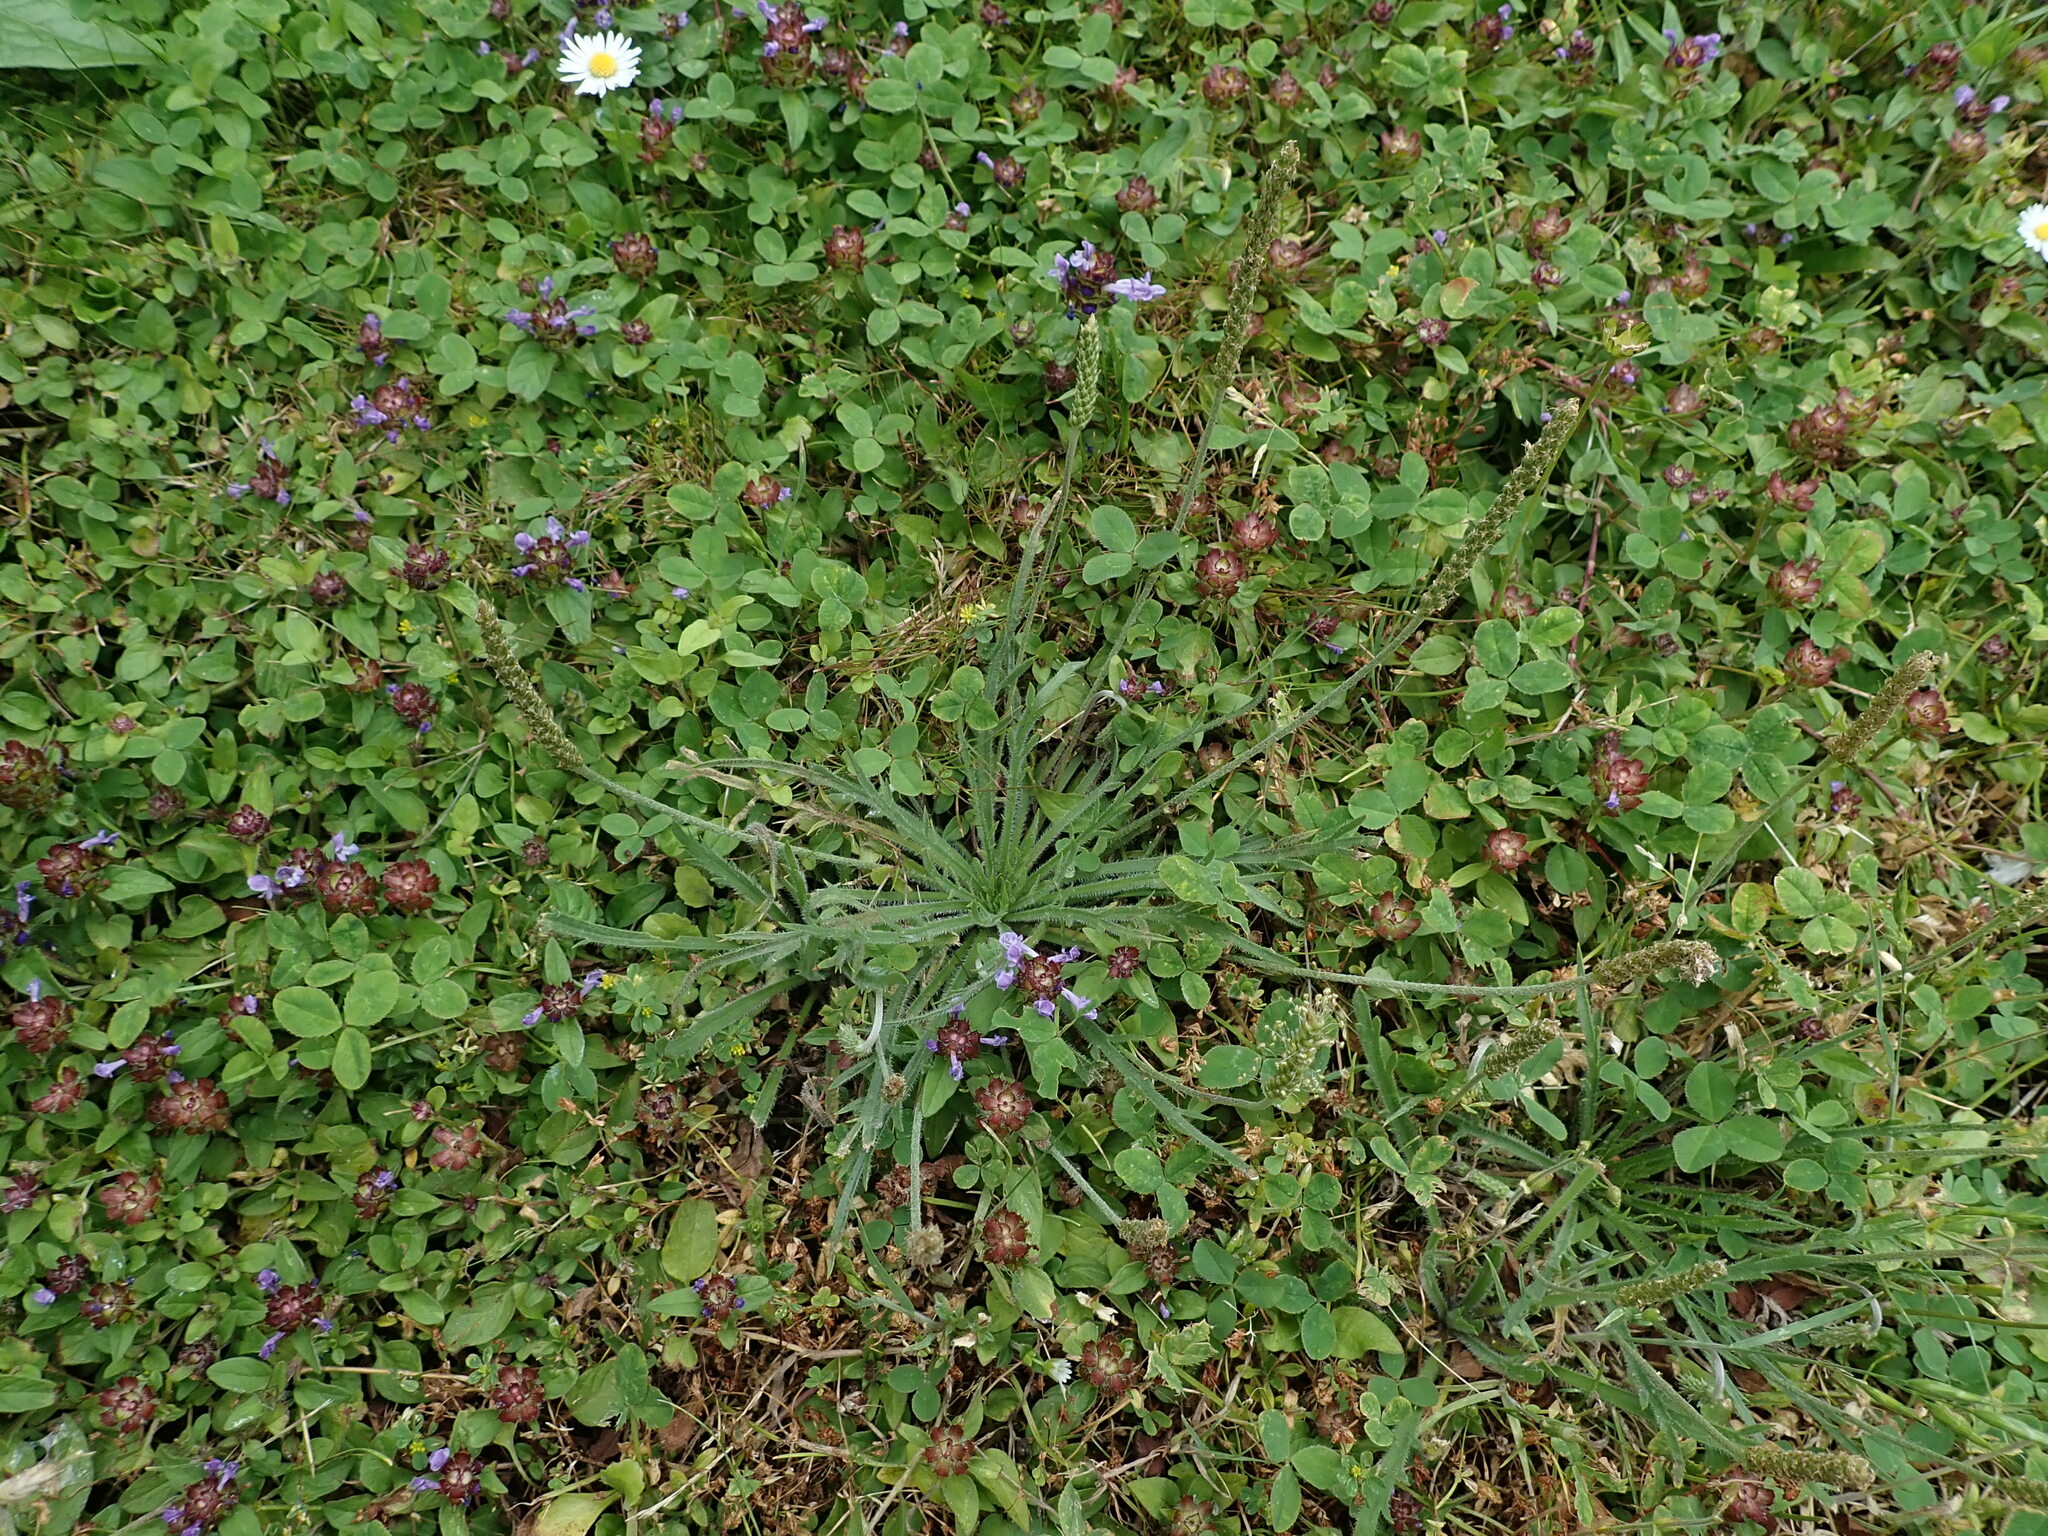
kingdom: Plantae
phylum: Tracheophyta
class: Magnoliopsida
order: Lamiales
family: Plantaginaceae
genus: Plantago
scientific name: Plantago coronopus
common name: Buck's-horn plantain
